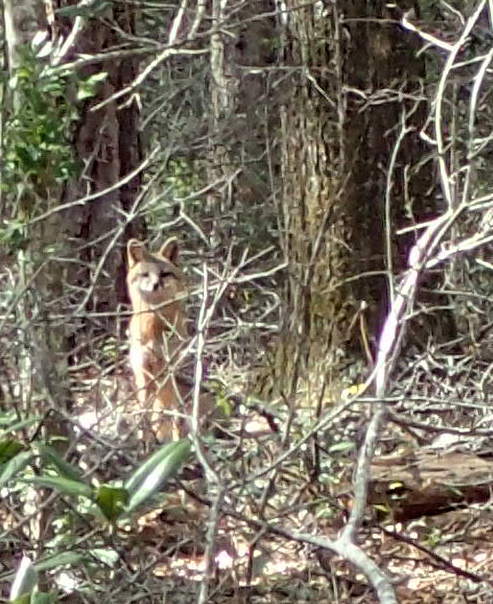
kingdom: Animalia
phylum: Chordata
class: Mammalia
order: Carnivora
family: Canidae
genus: Urocyon
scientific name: Urocyon cinereoargenteus
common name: Gray fox
